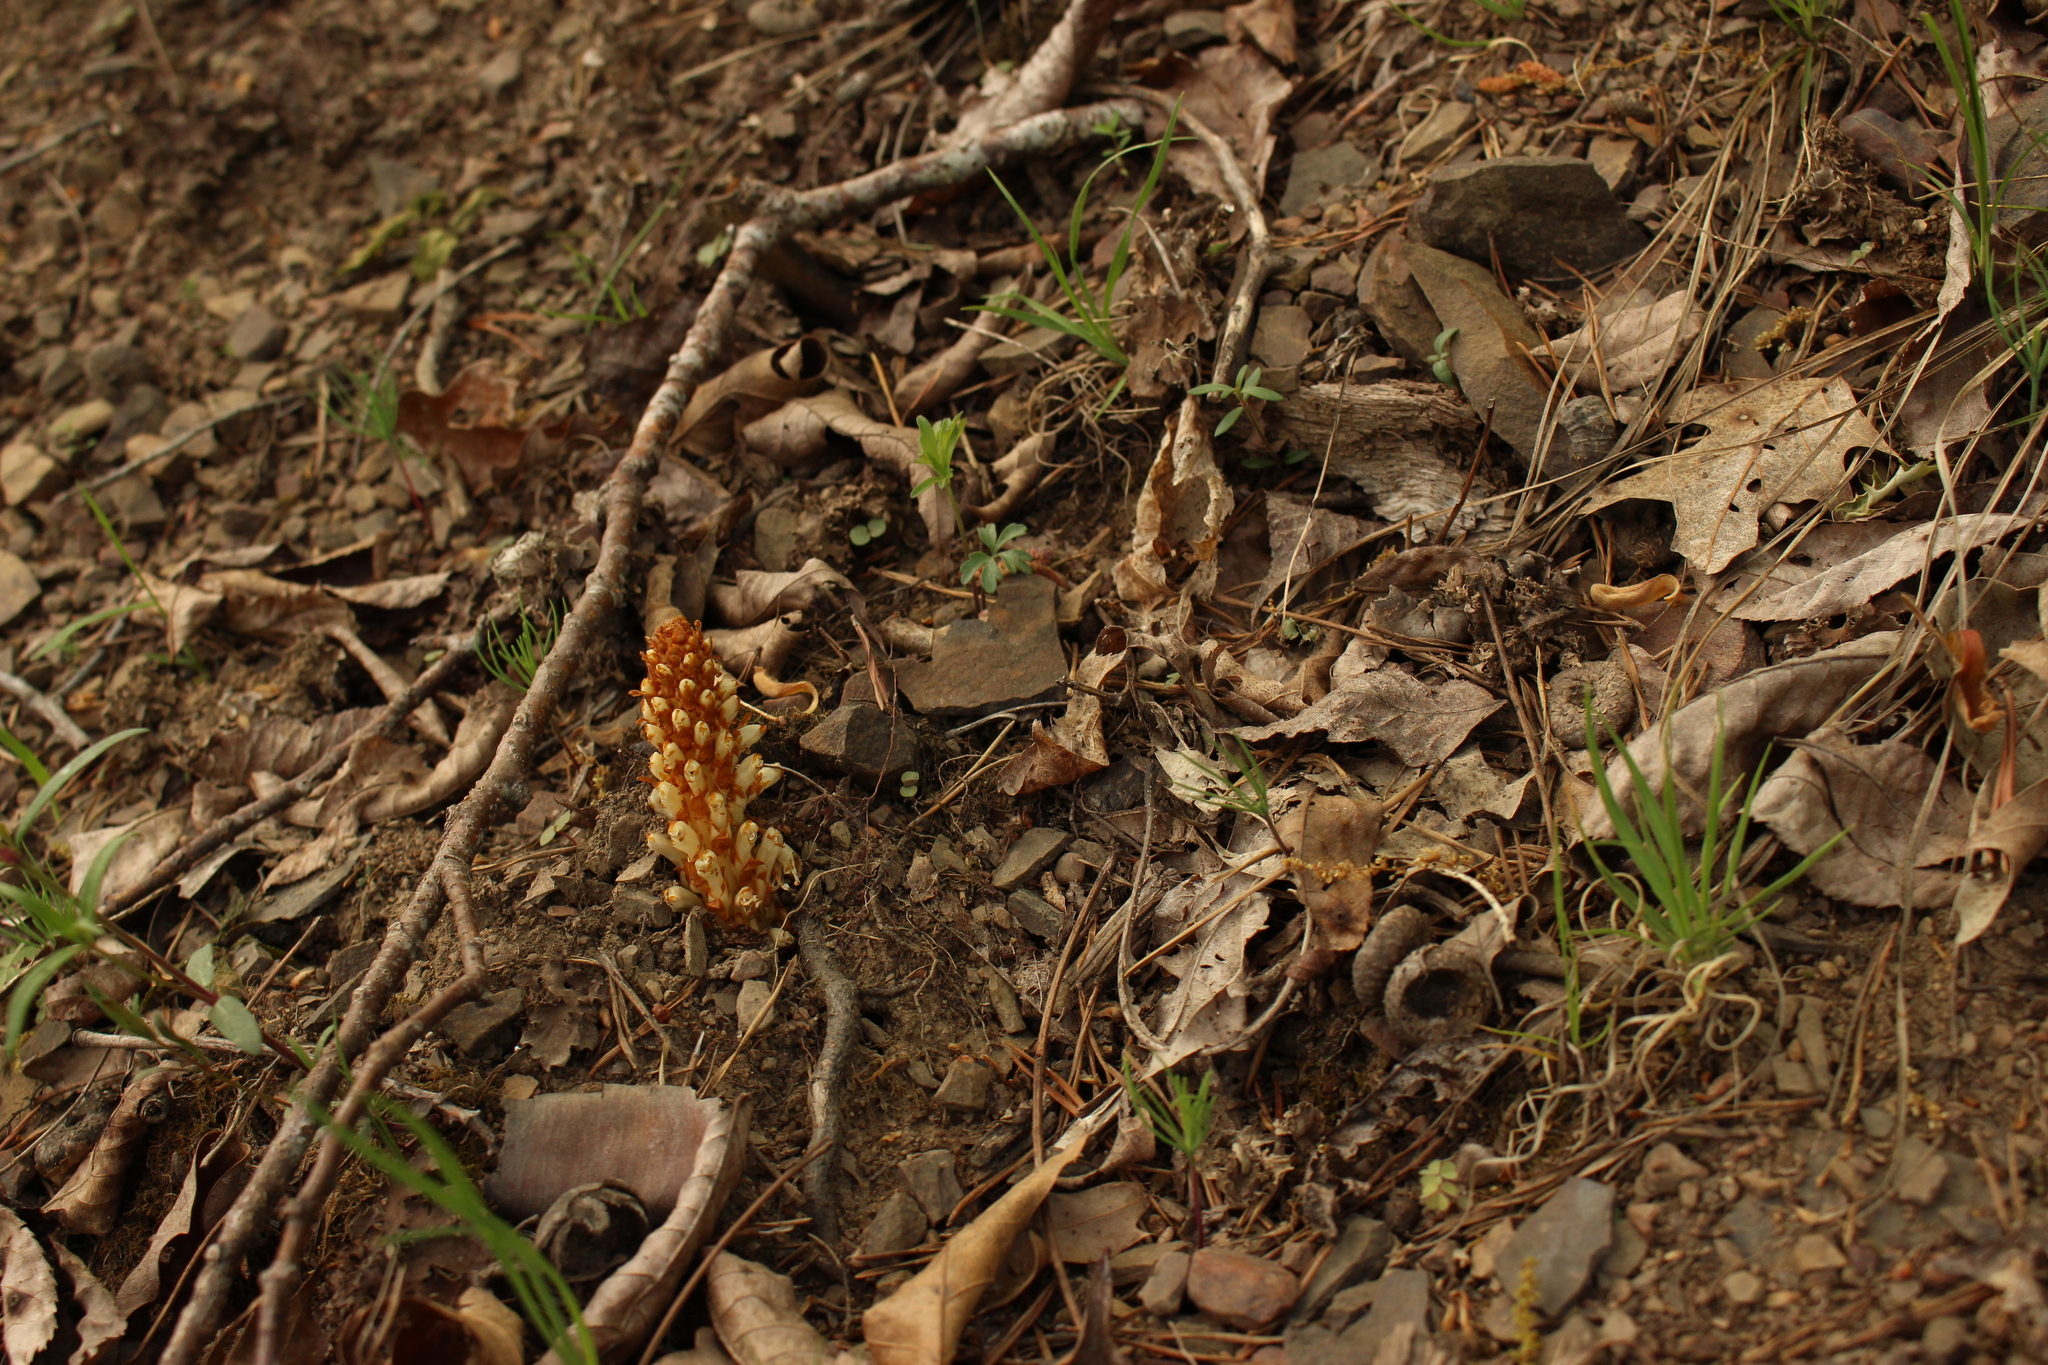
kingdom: Plantae
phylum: Tracheophyta
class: Magnoliopsida
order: Lamiales
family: Orobanchaceae
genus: Conopholis
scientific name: Conopholis americana
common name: American cancer-root
